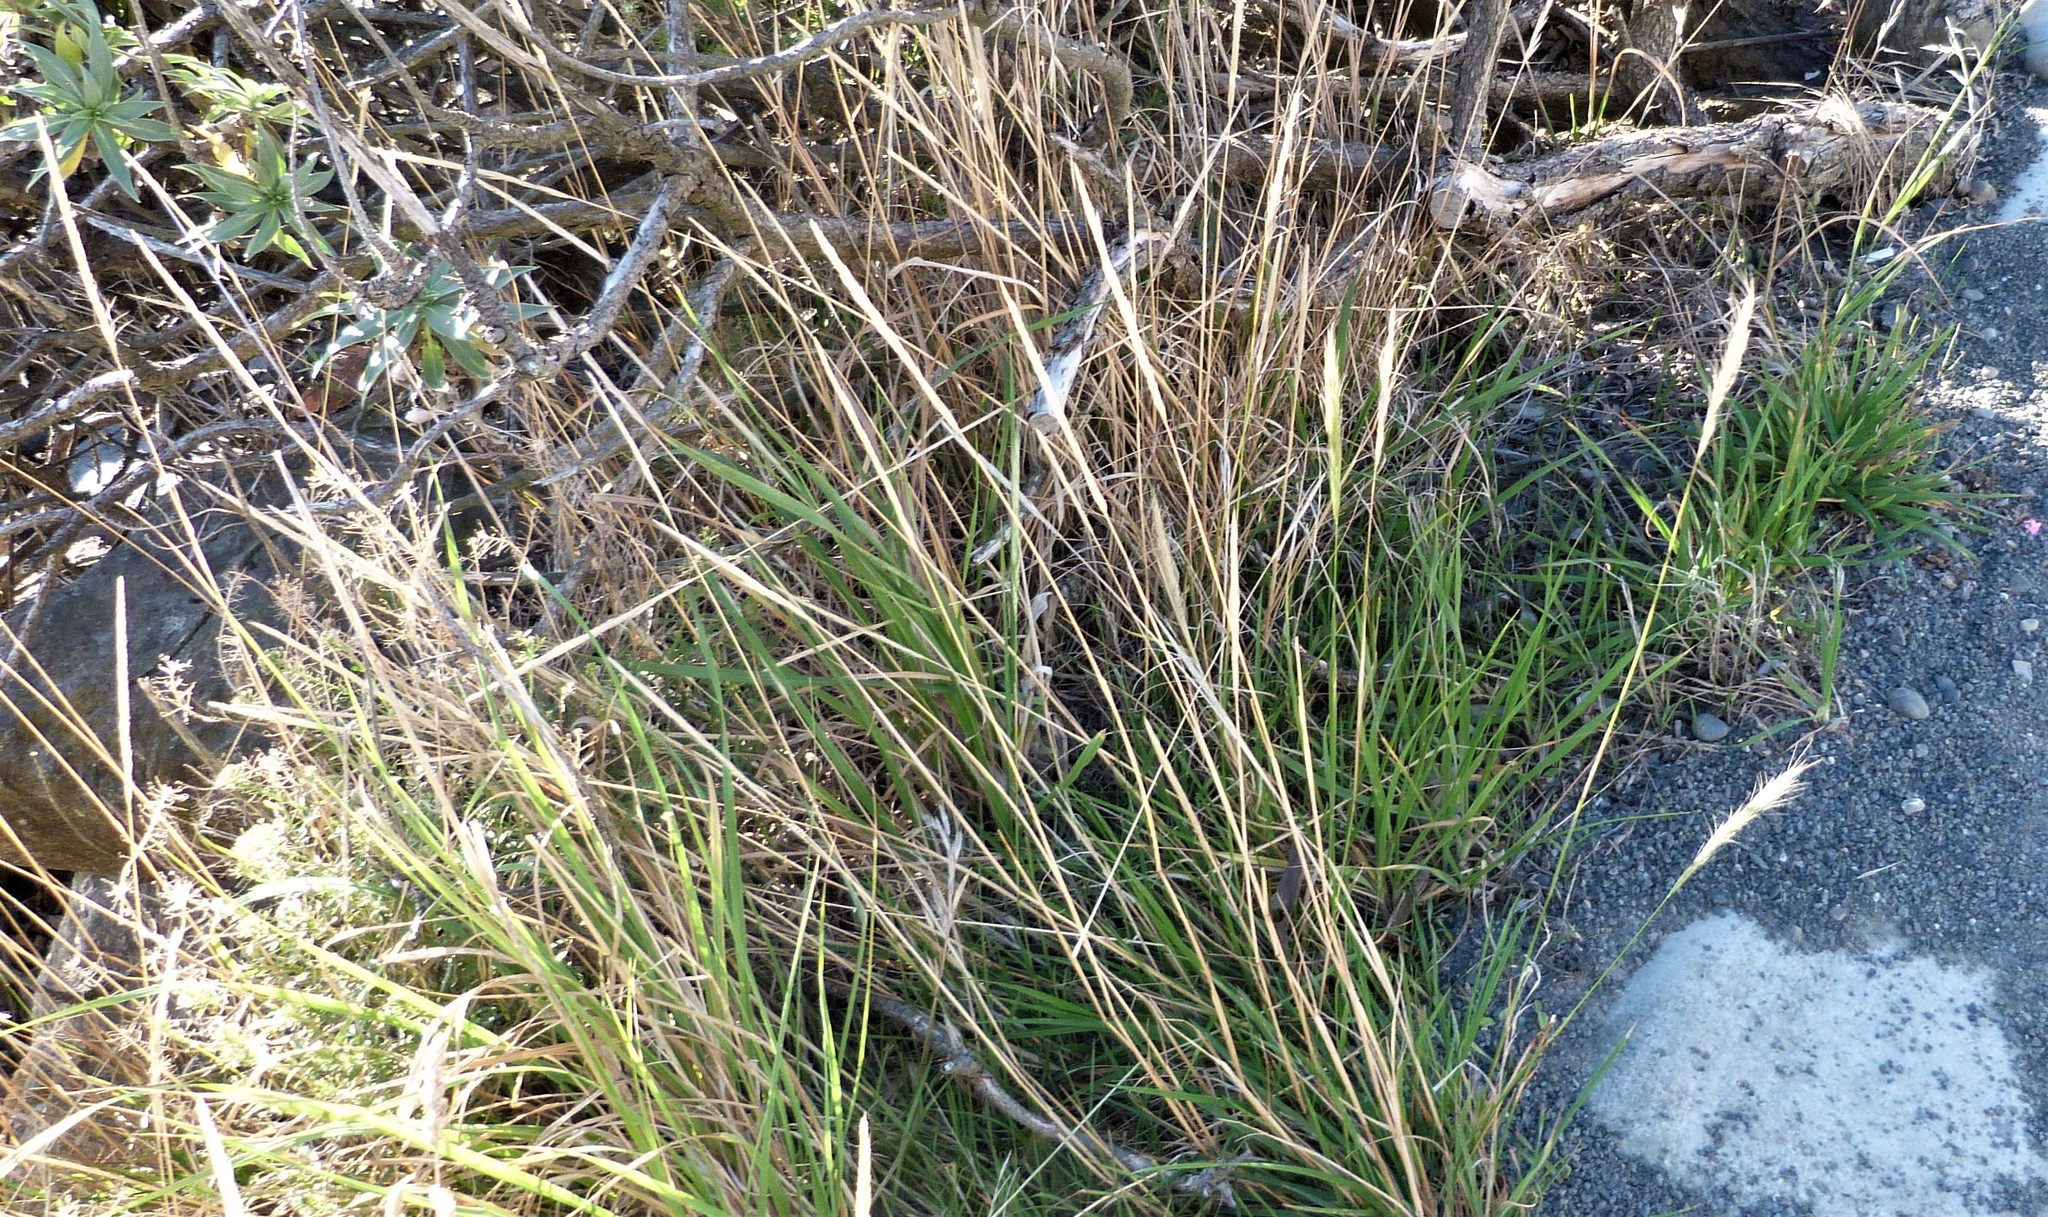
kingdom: Plantae
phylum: Tracheophyta
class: Liliopsida
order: Poales
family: Poaceae
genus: Dichelachne
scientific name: Dichelachne crinita
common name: Clovenfoot plumegrass
